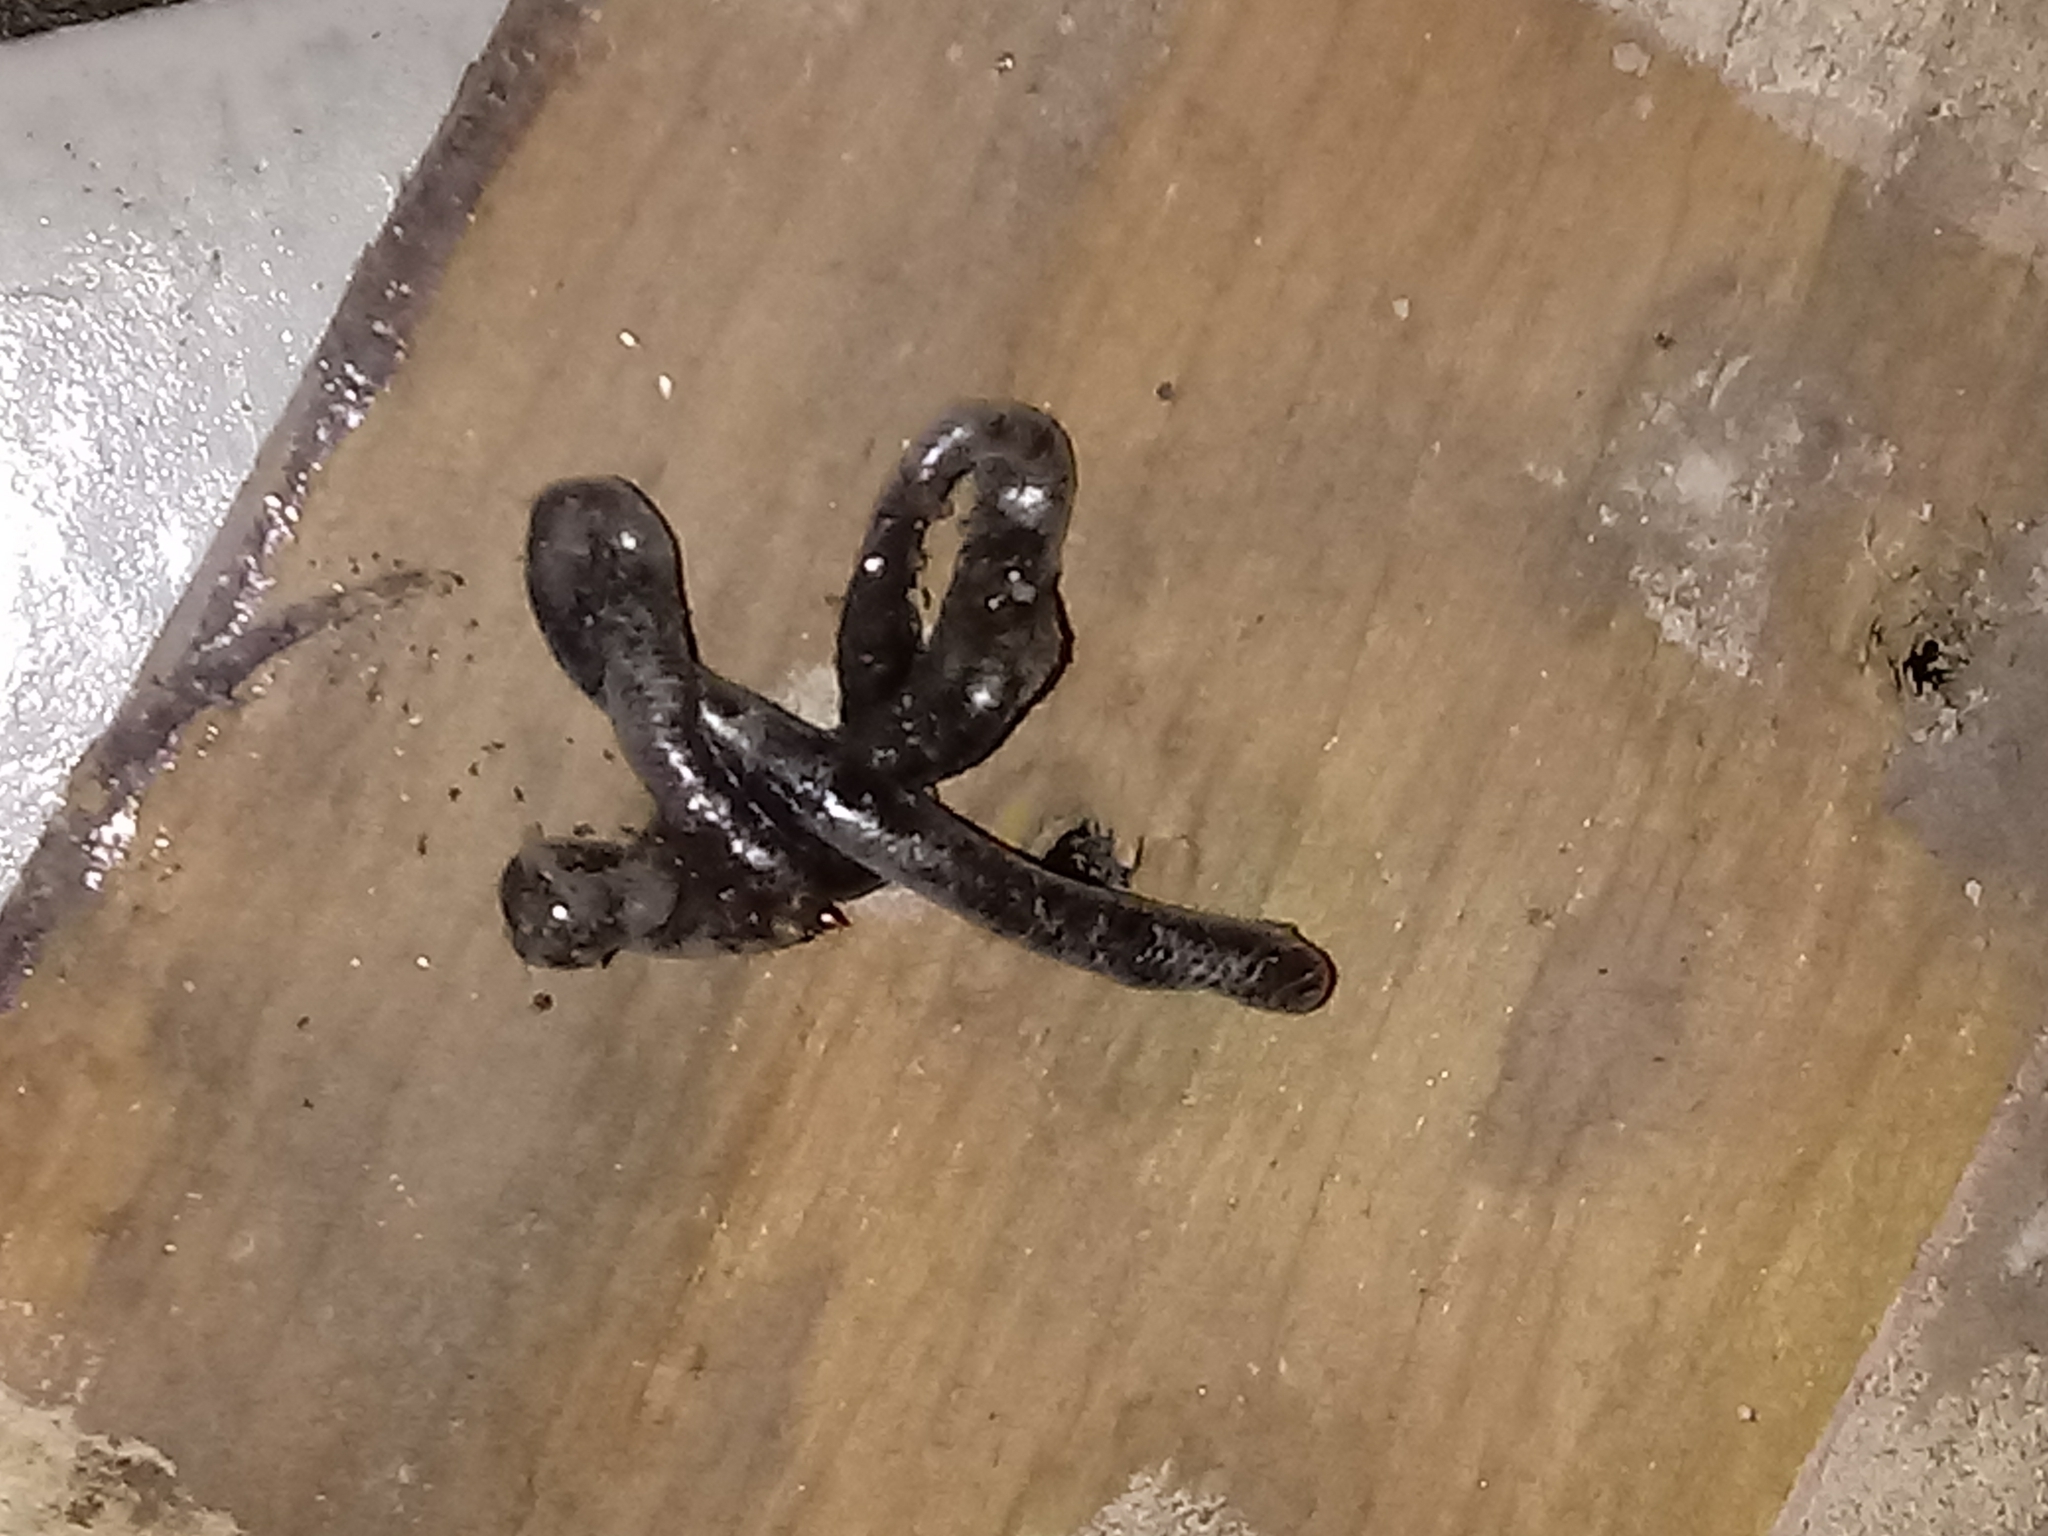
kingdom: Animalia
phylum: Chordata
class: Squamata
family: Typhlopidae
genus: Indotyphlops
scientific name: Indotyphlops braminus
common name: Brahminy blindsnake
